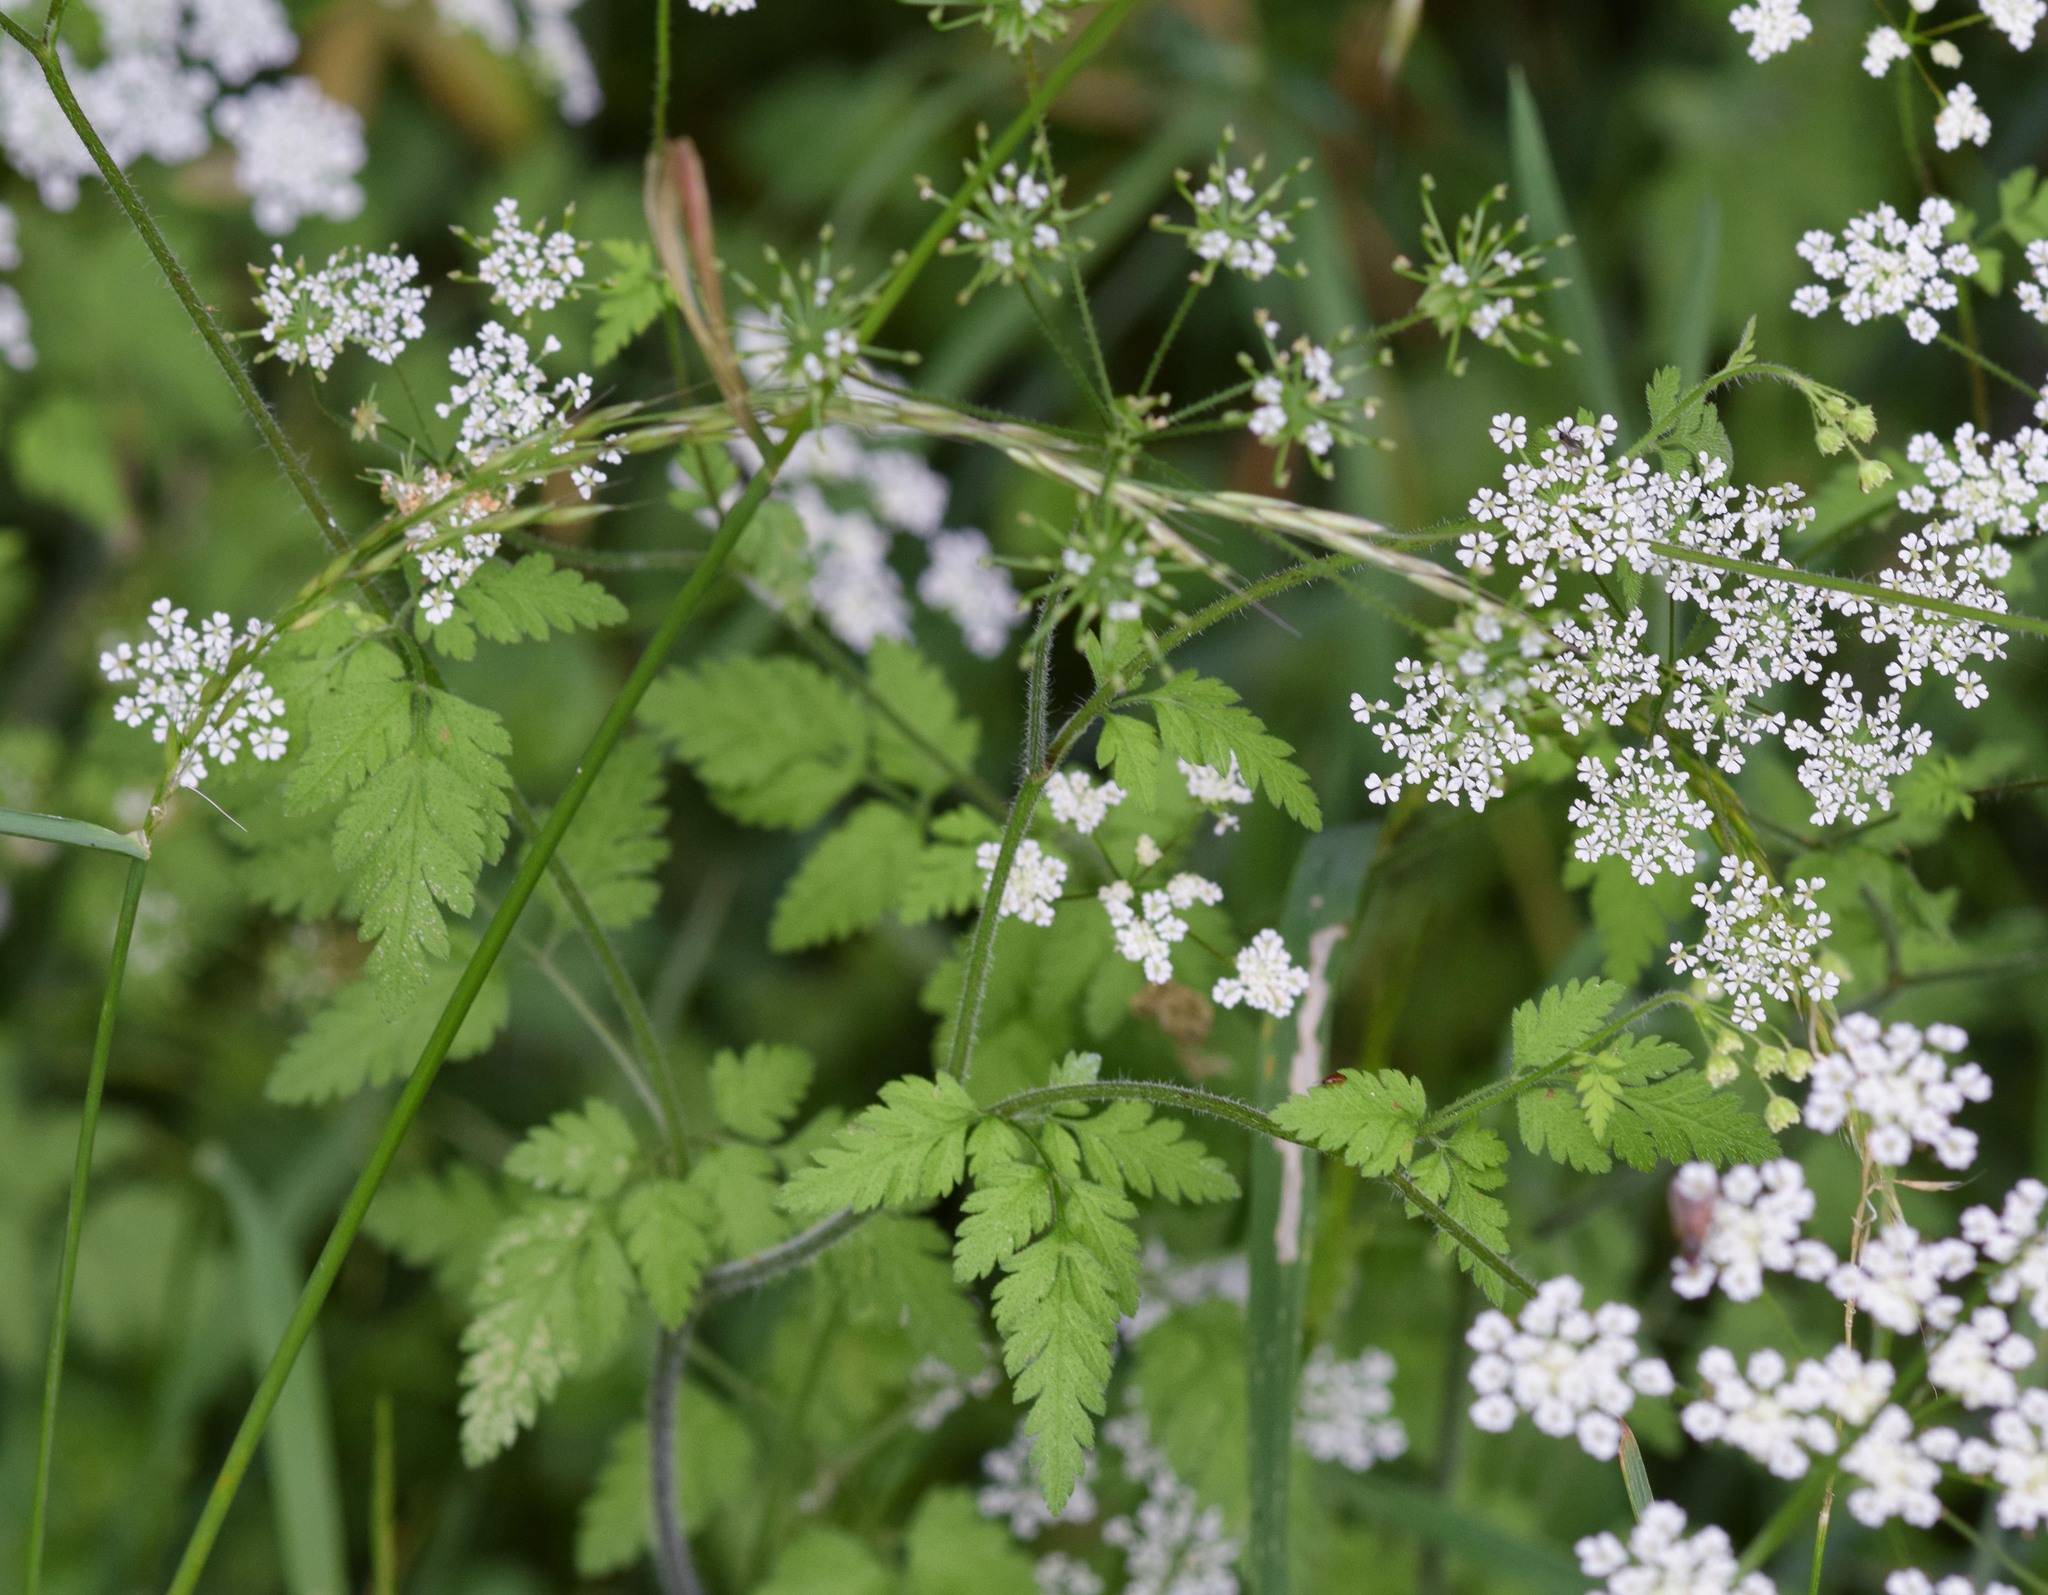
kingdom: Plantae
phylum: Tracheophyta
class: Magnoliopsida
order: Apiales
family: Apiaceae
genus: Chaerophyllum
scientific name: Chaerophyllum temulum
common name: Rough chervil
